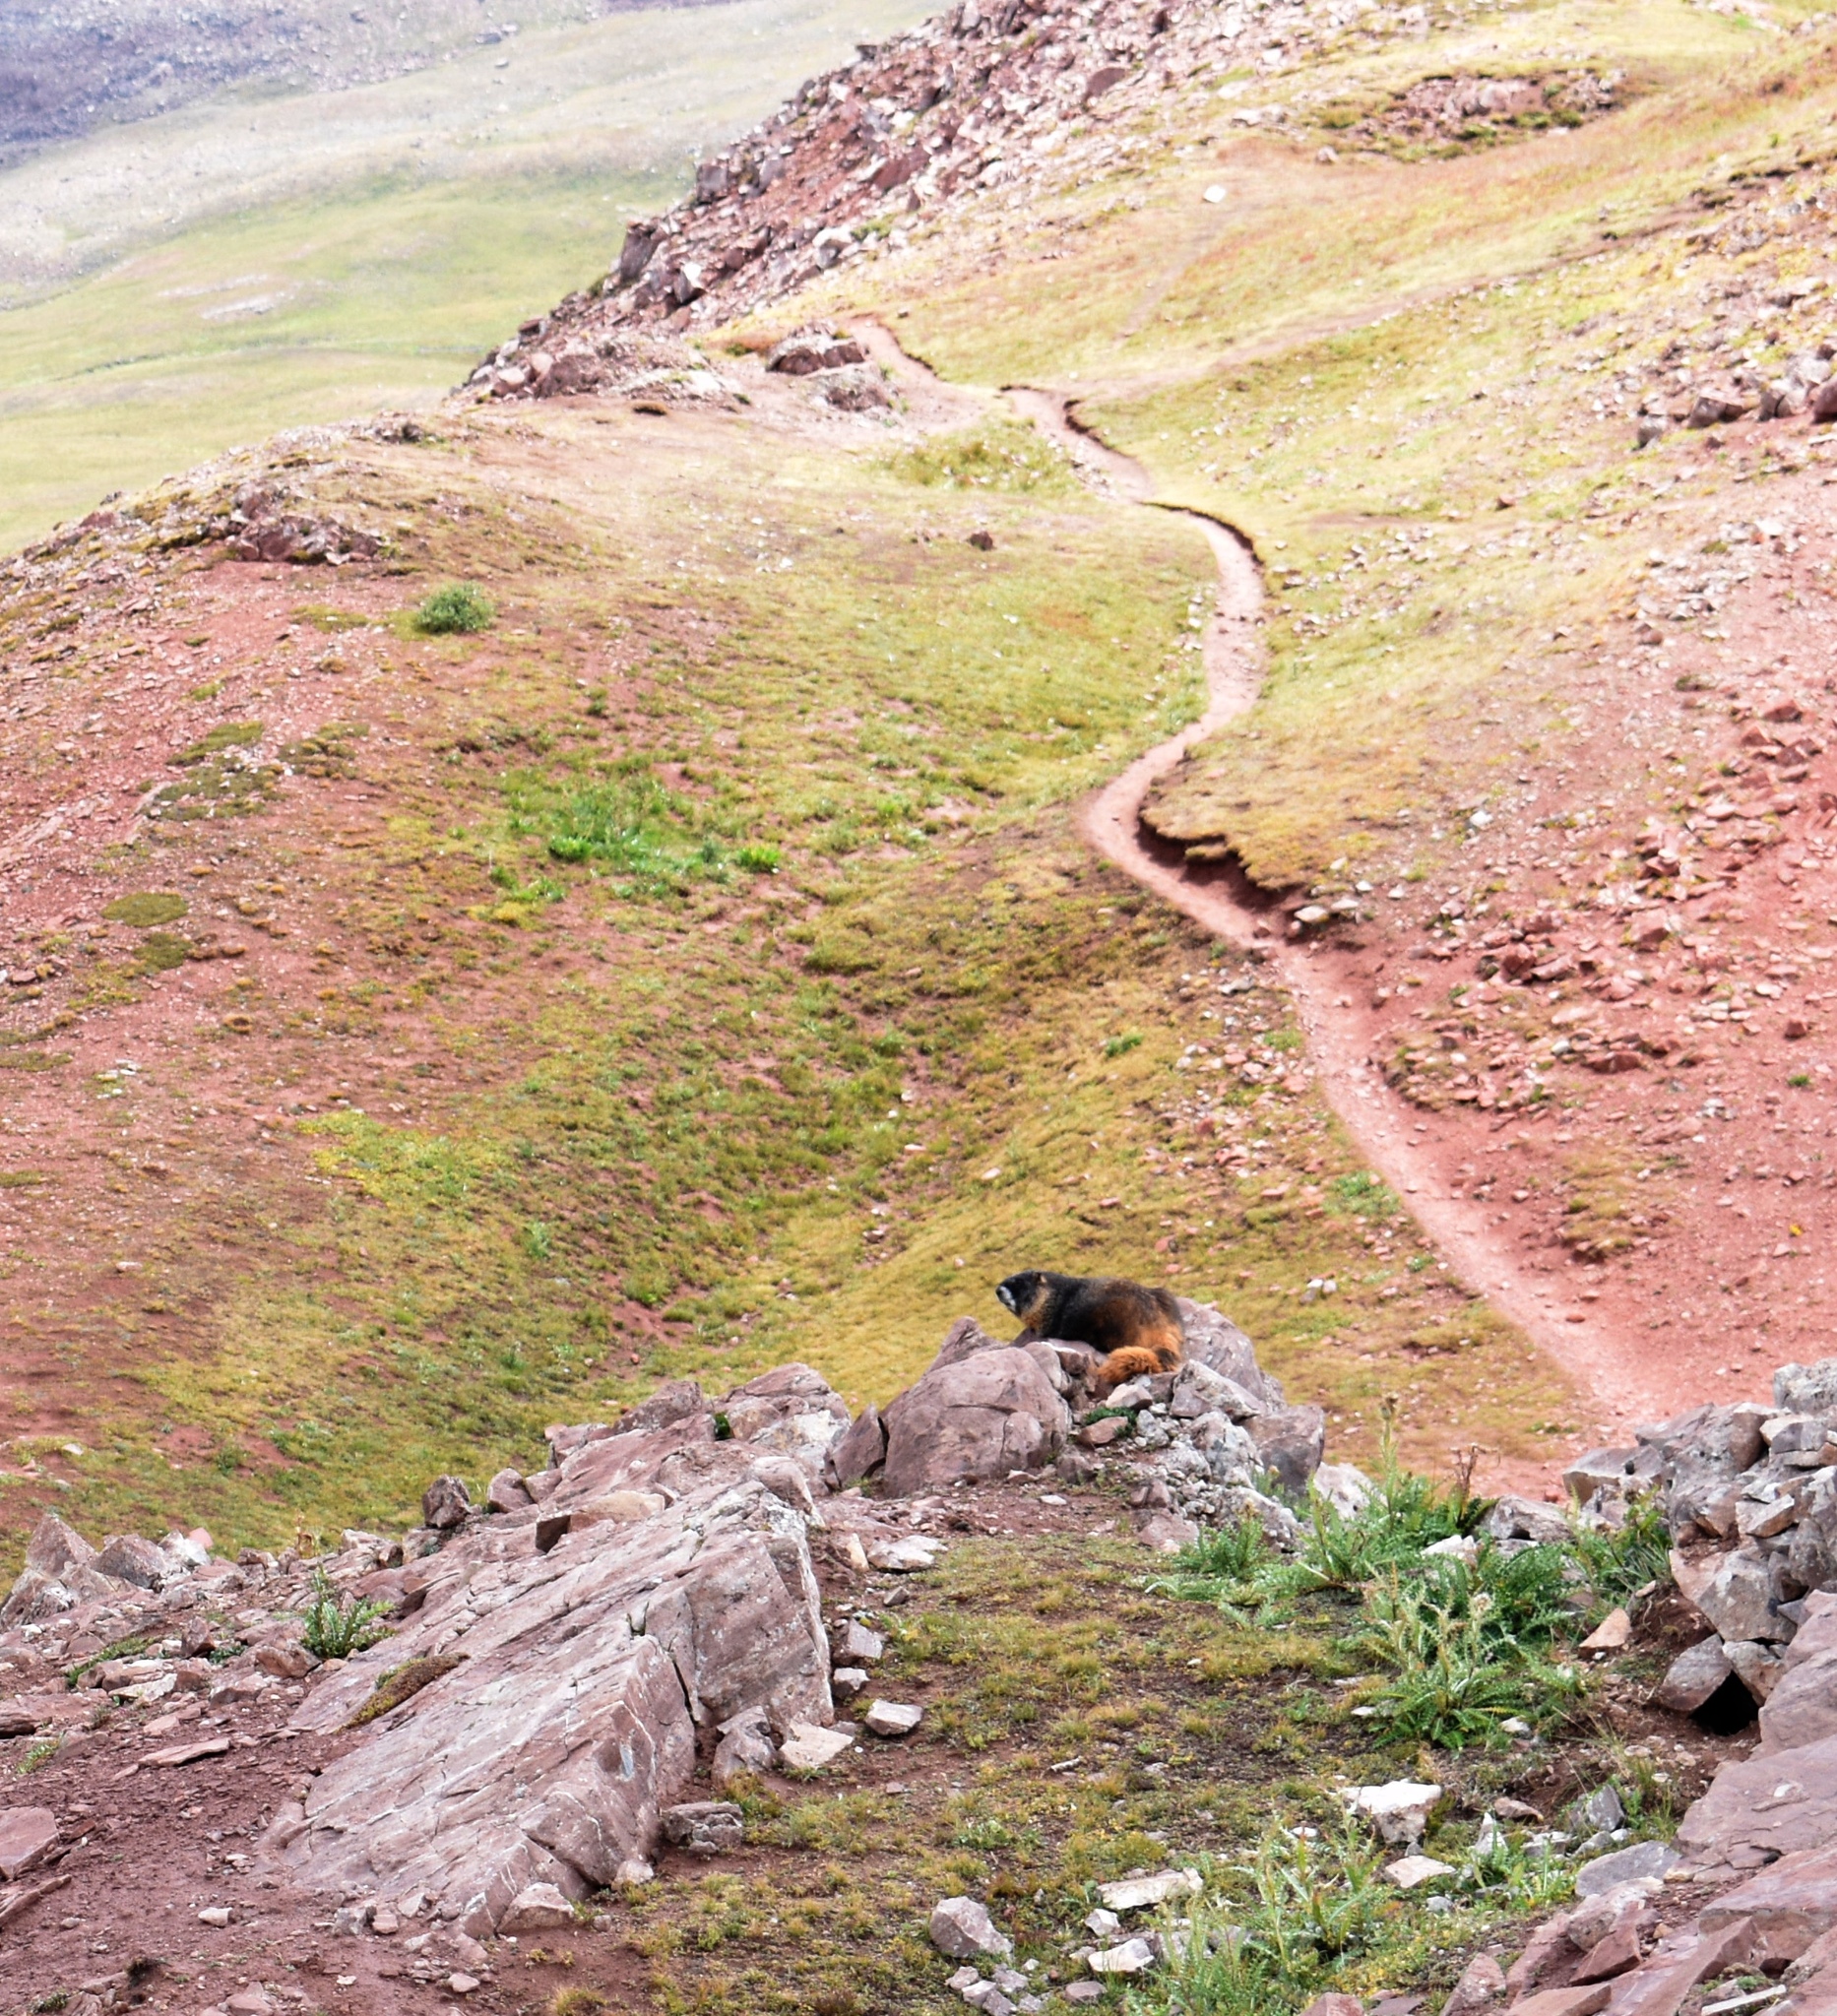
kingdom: Animalia
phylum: Chordata
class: Mammalia
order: Rodentia
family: Sciuridae
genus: Marmota
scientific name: Marmota flaviventris
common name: Yellow-bellied marmot
